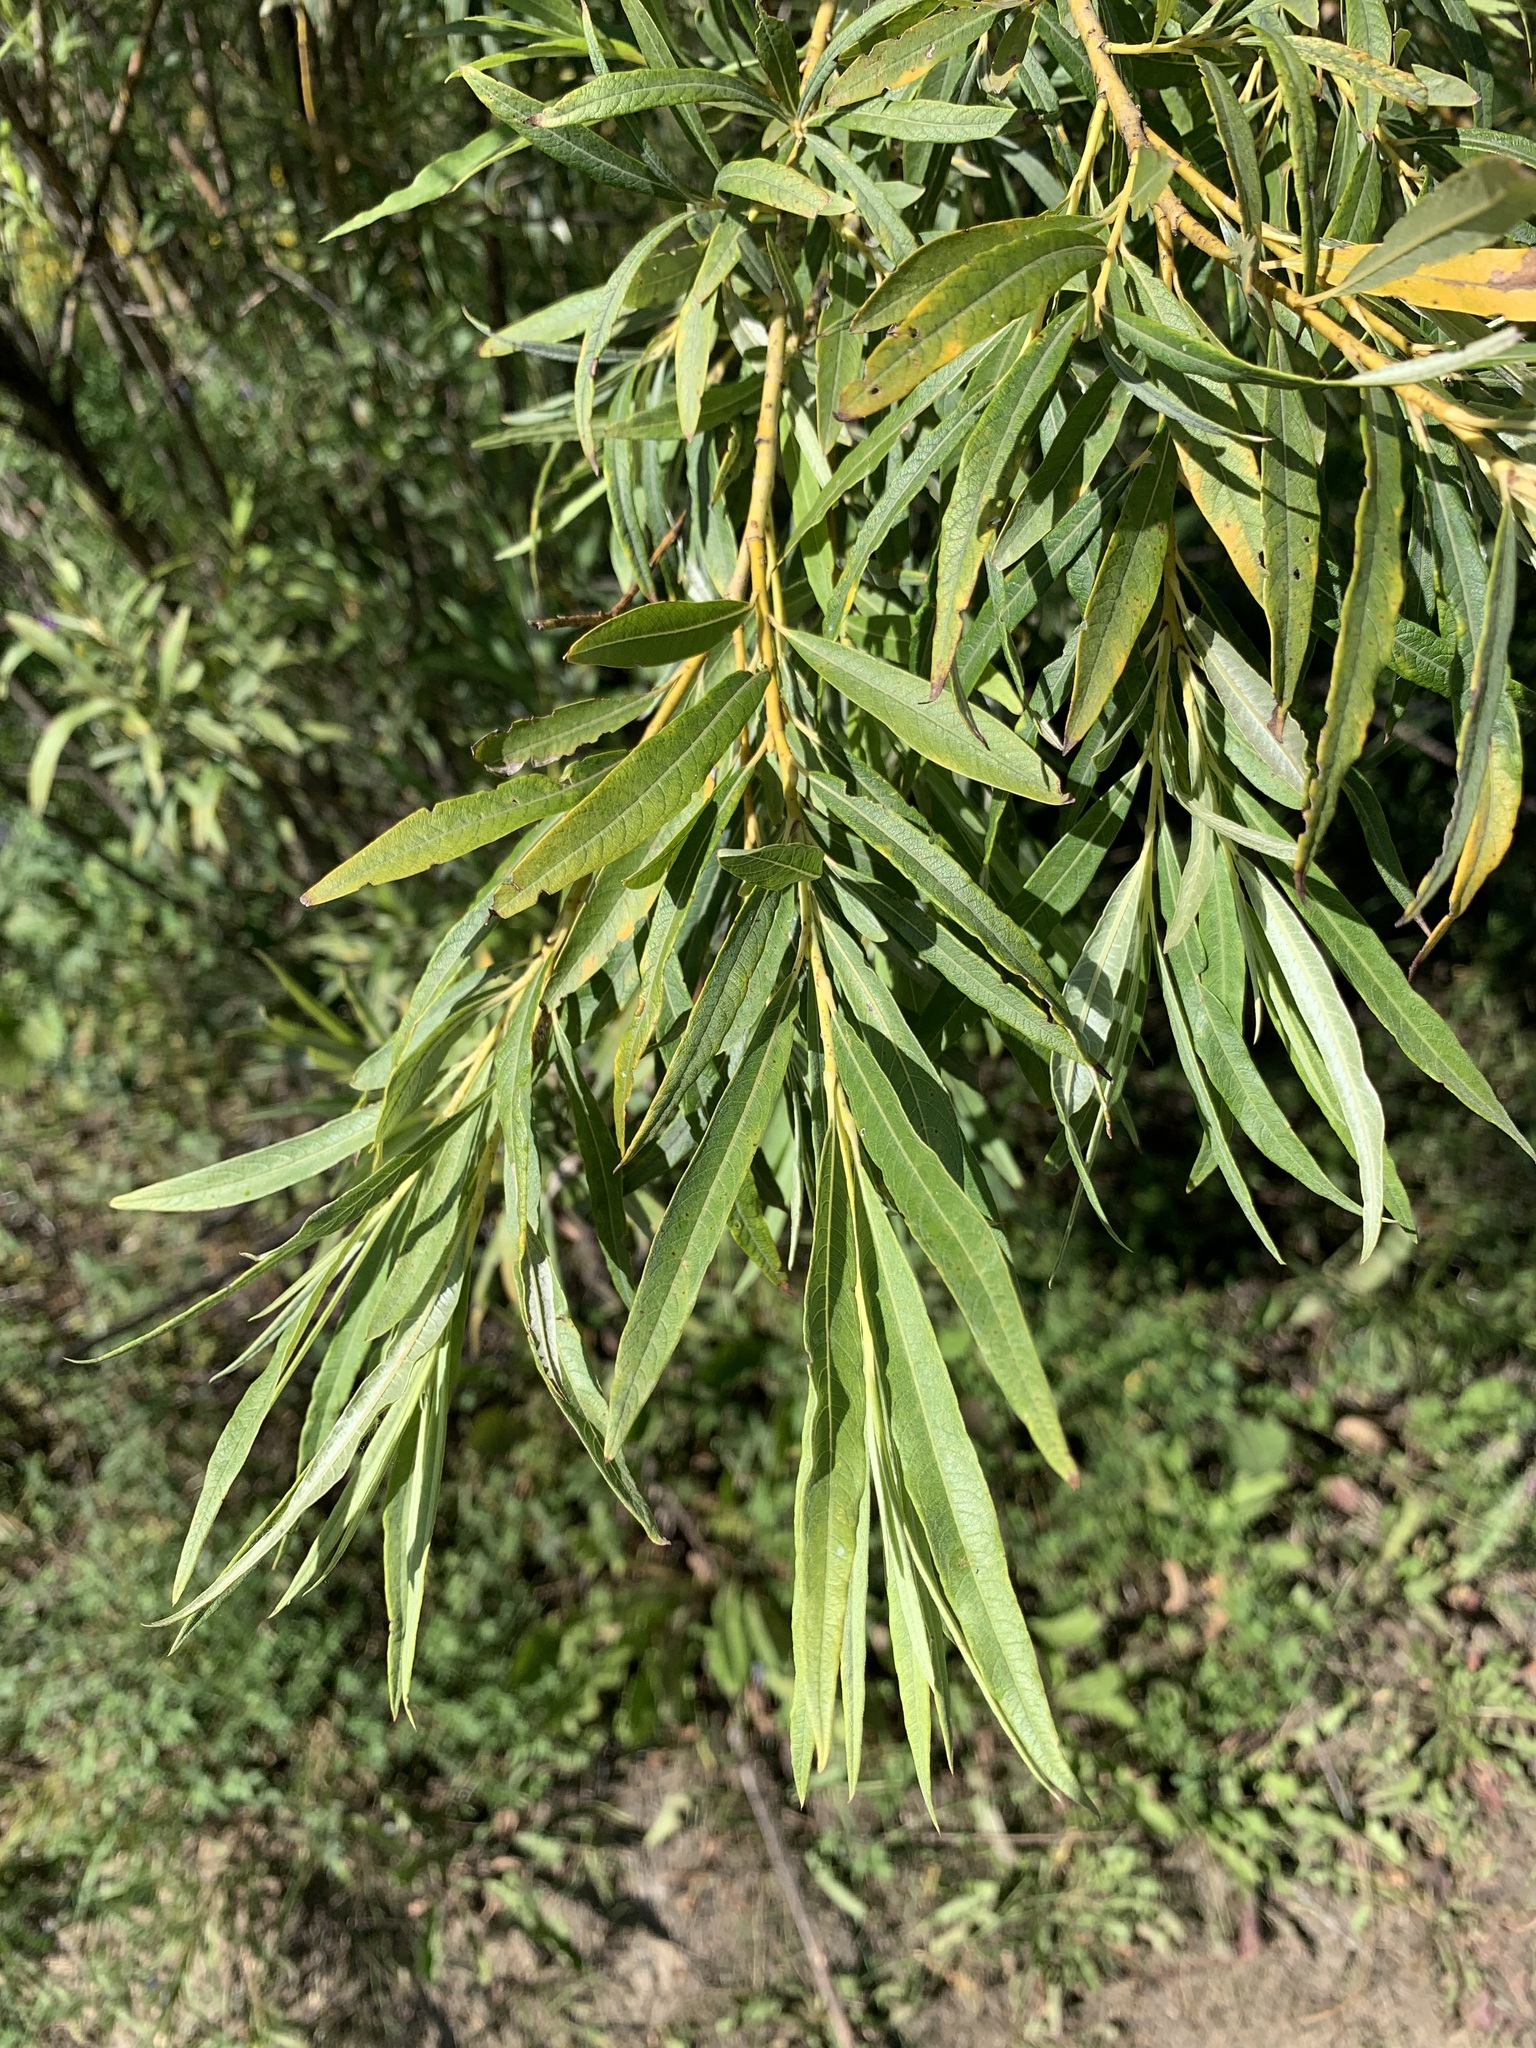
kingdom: Plantae
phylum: Tracheophyta
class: Magnoliopsida
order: Malpighiales
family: Salicaceae
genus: Salix
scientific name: Salix viminalis
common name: Osier
